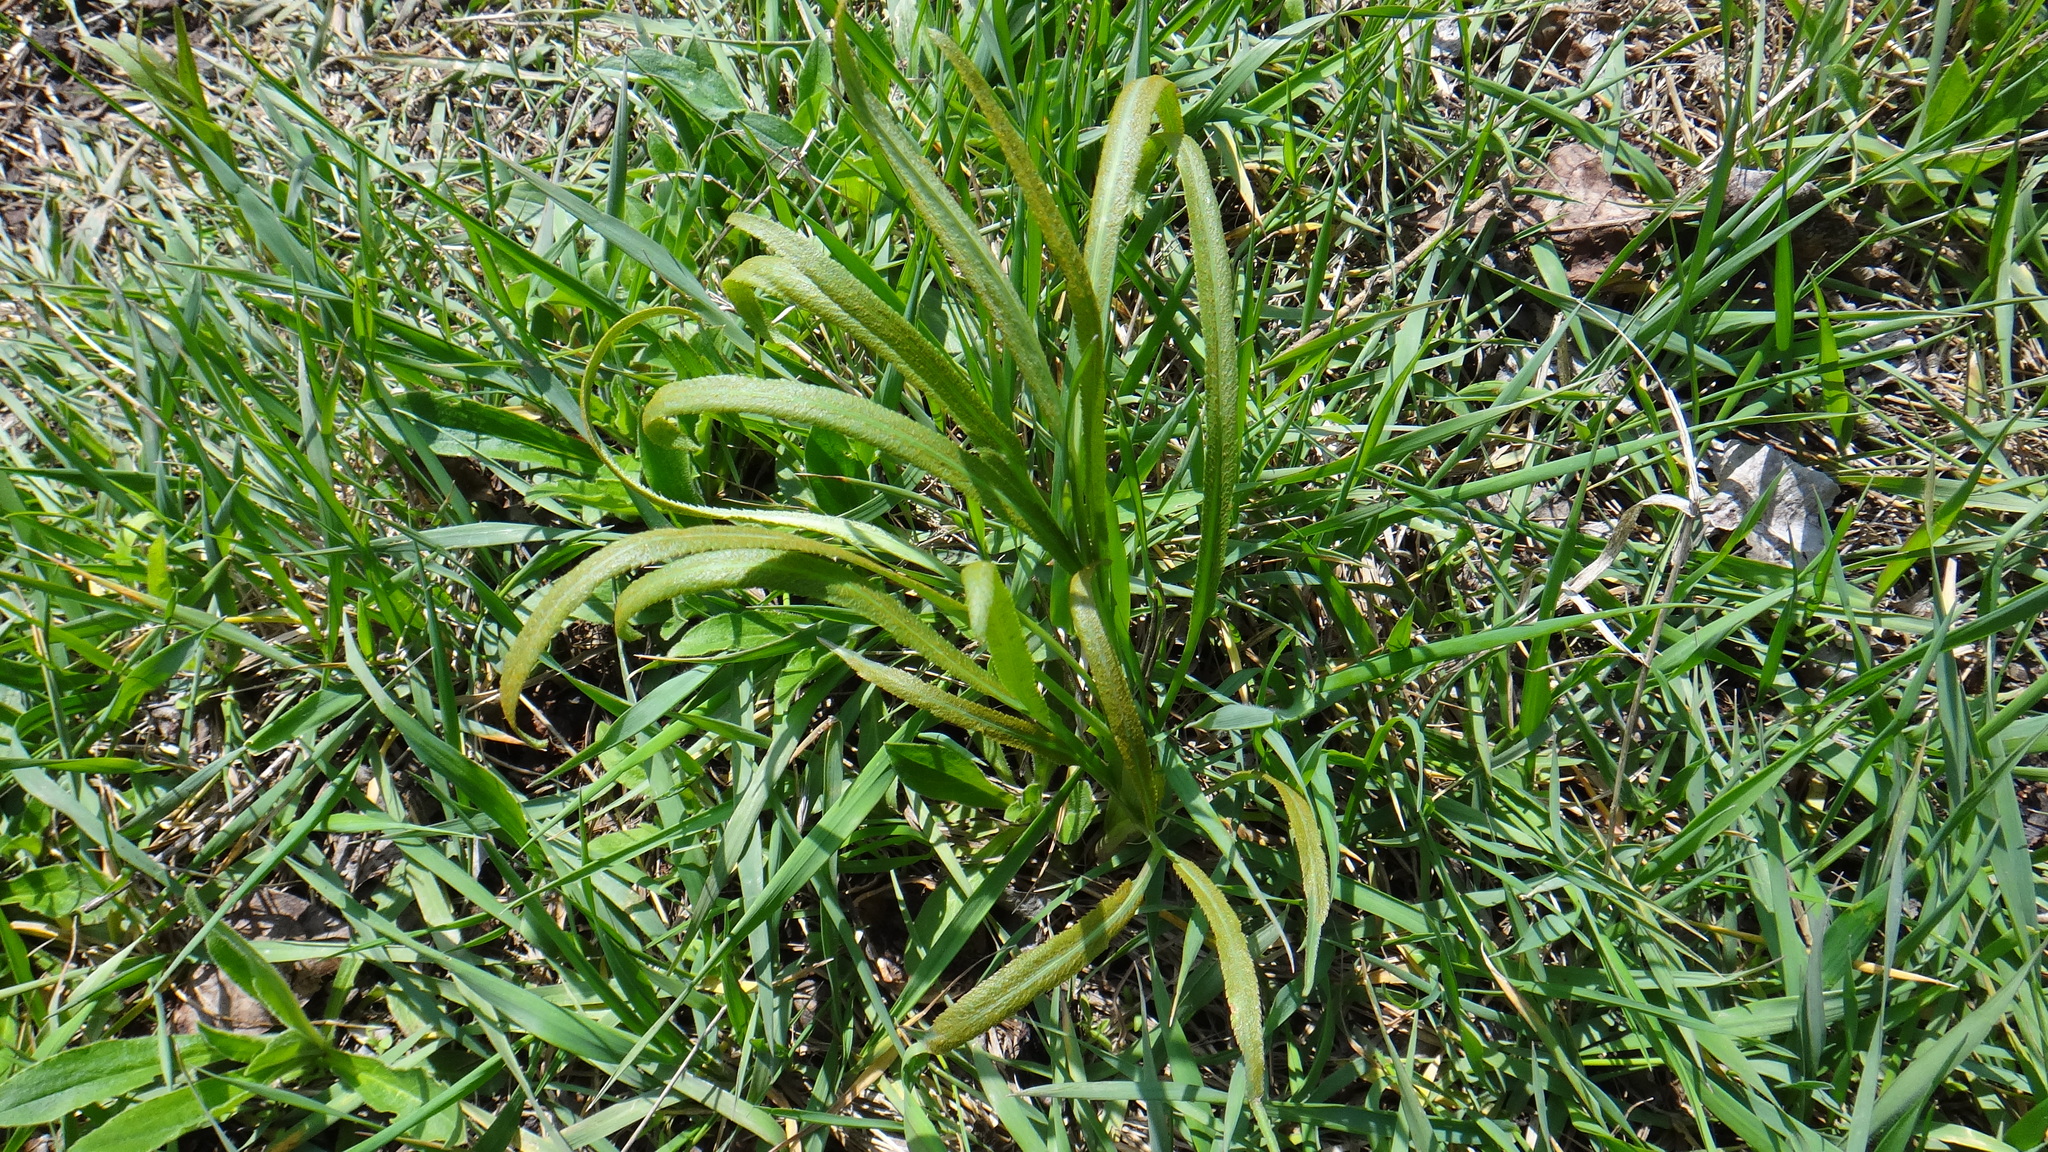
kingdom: Plantae
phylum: Tracheophyta
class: Magnoliopsida
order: Apiales
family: Apiaceae
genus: Falcaria
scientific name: Falcaria vulgaris
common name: Longleaf
